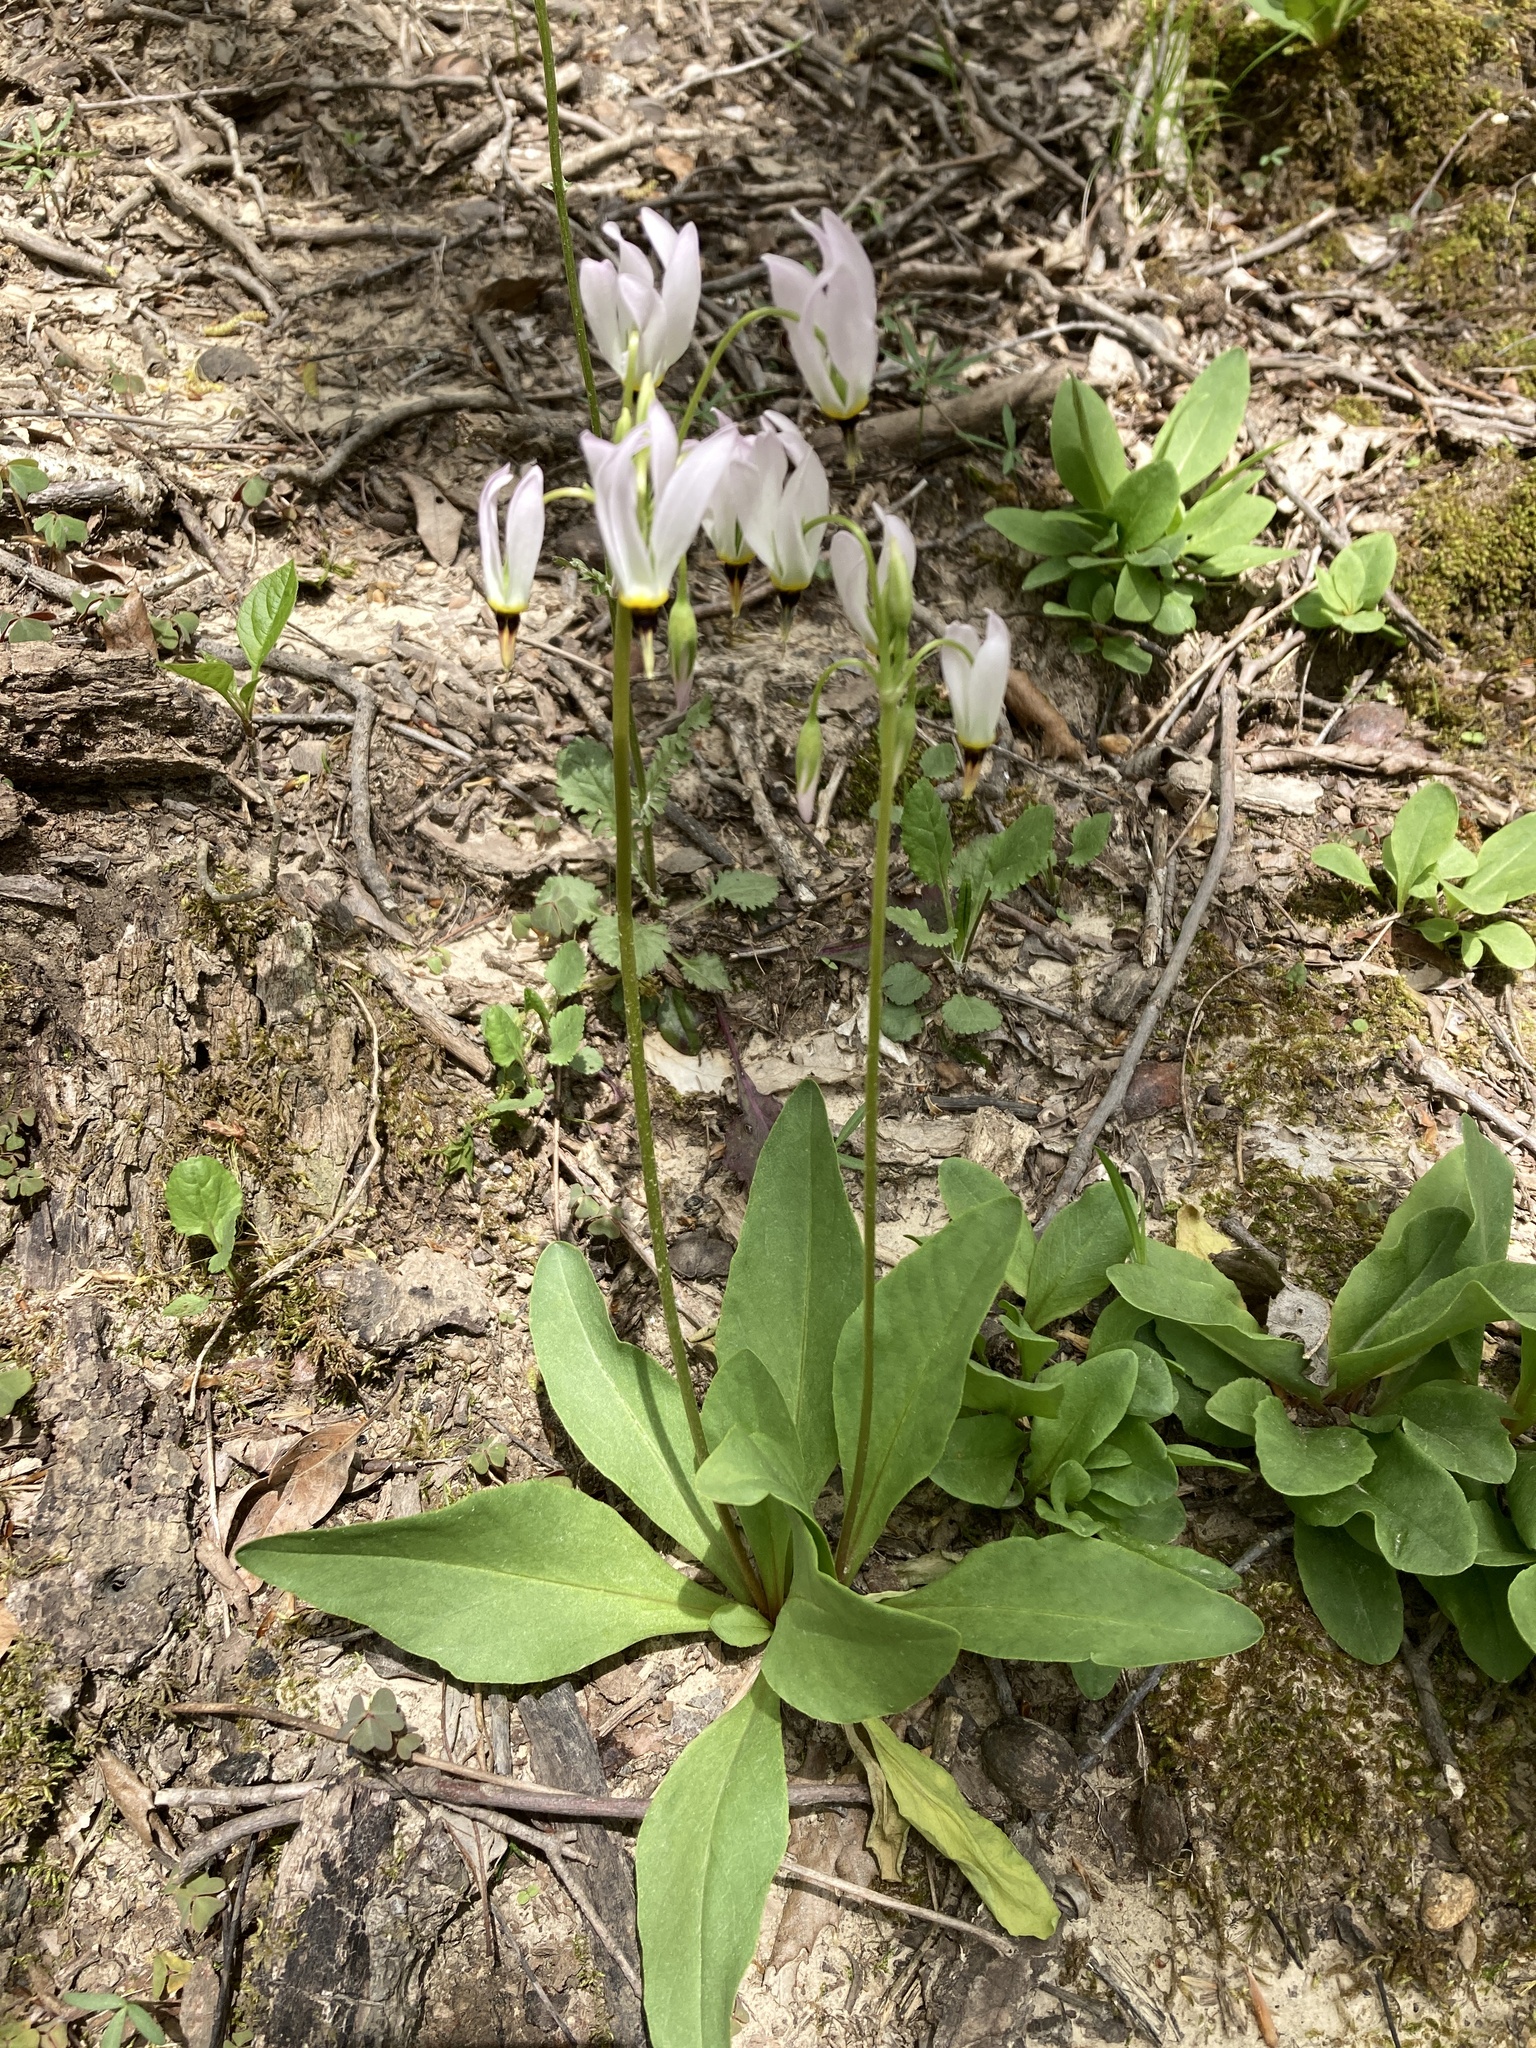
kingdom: Plantae
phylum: Tracheophyta
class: Magnoliopsida
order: Ericales
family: Primulaceae
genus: Dodecatheon
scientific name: Dodecatheon meadia
